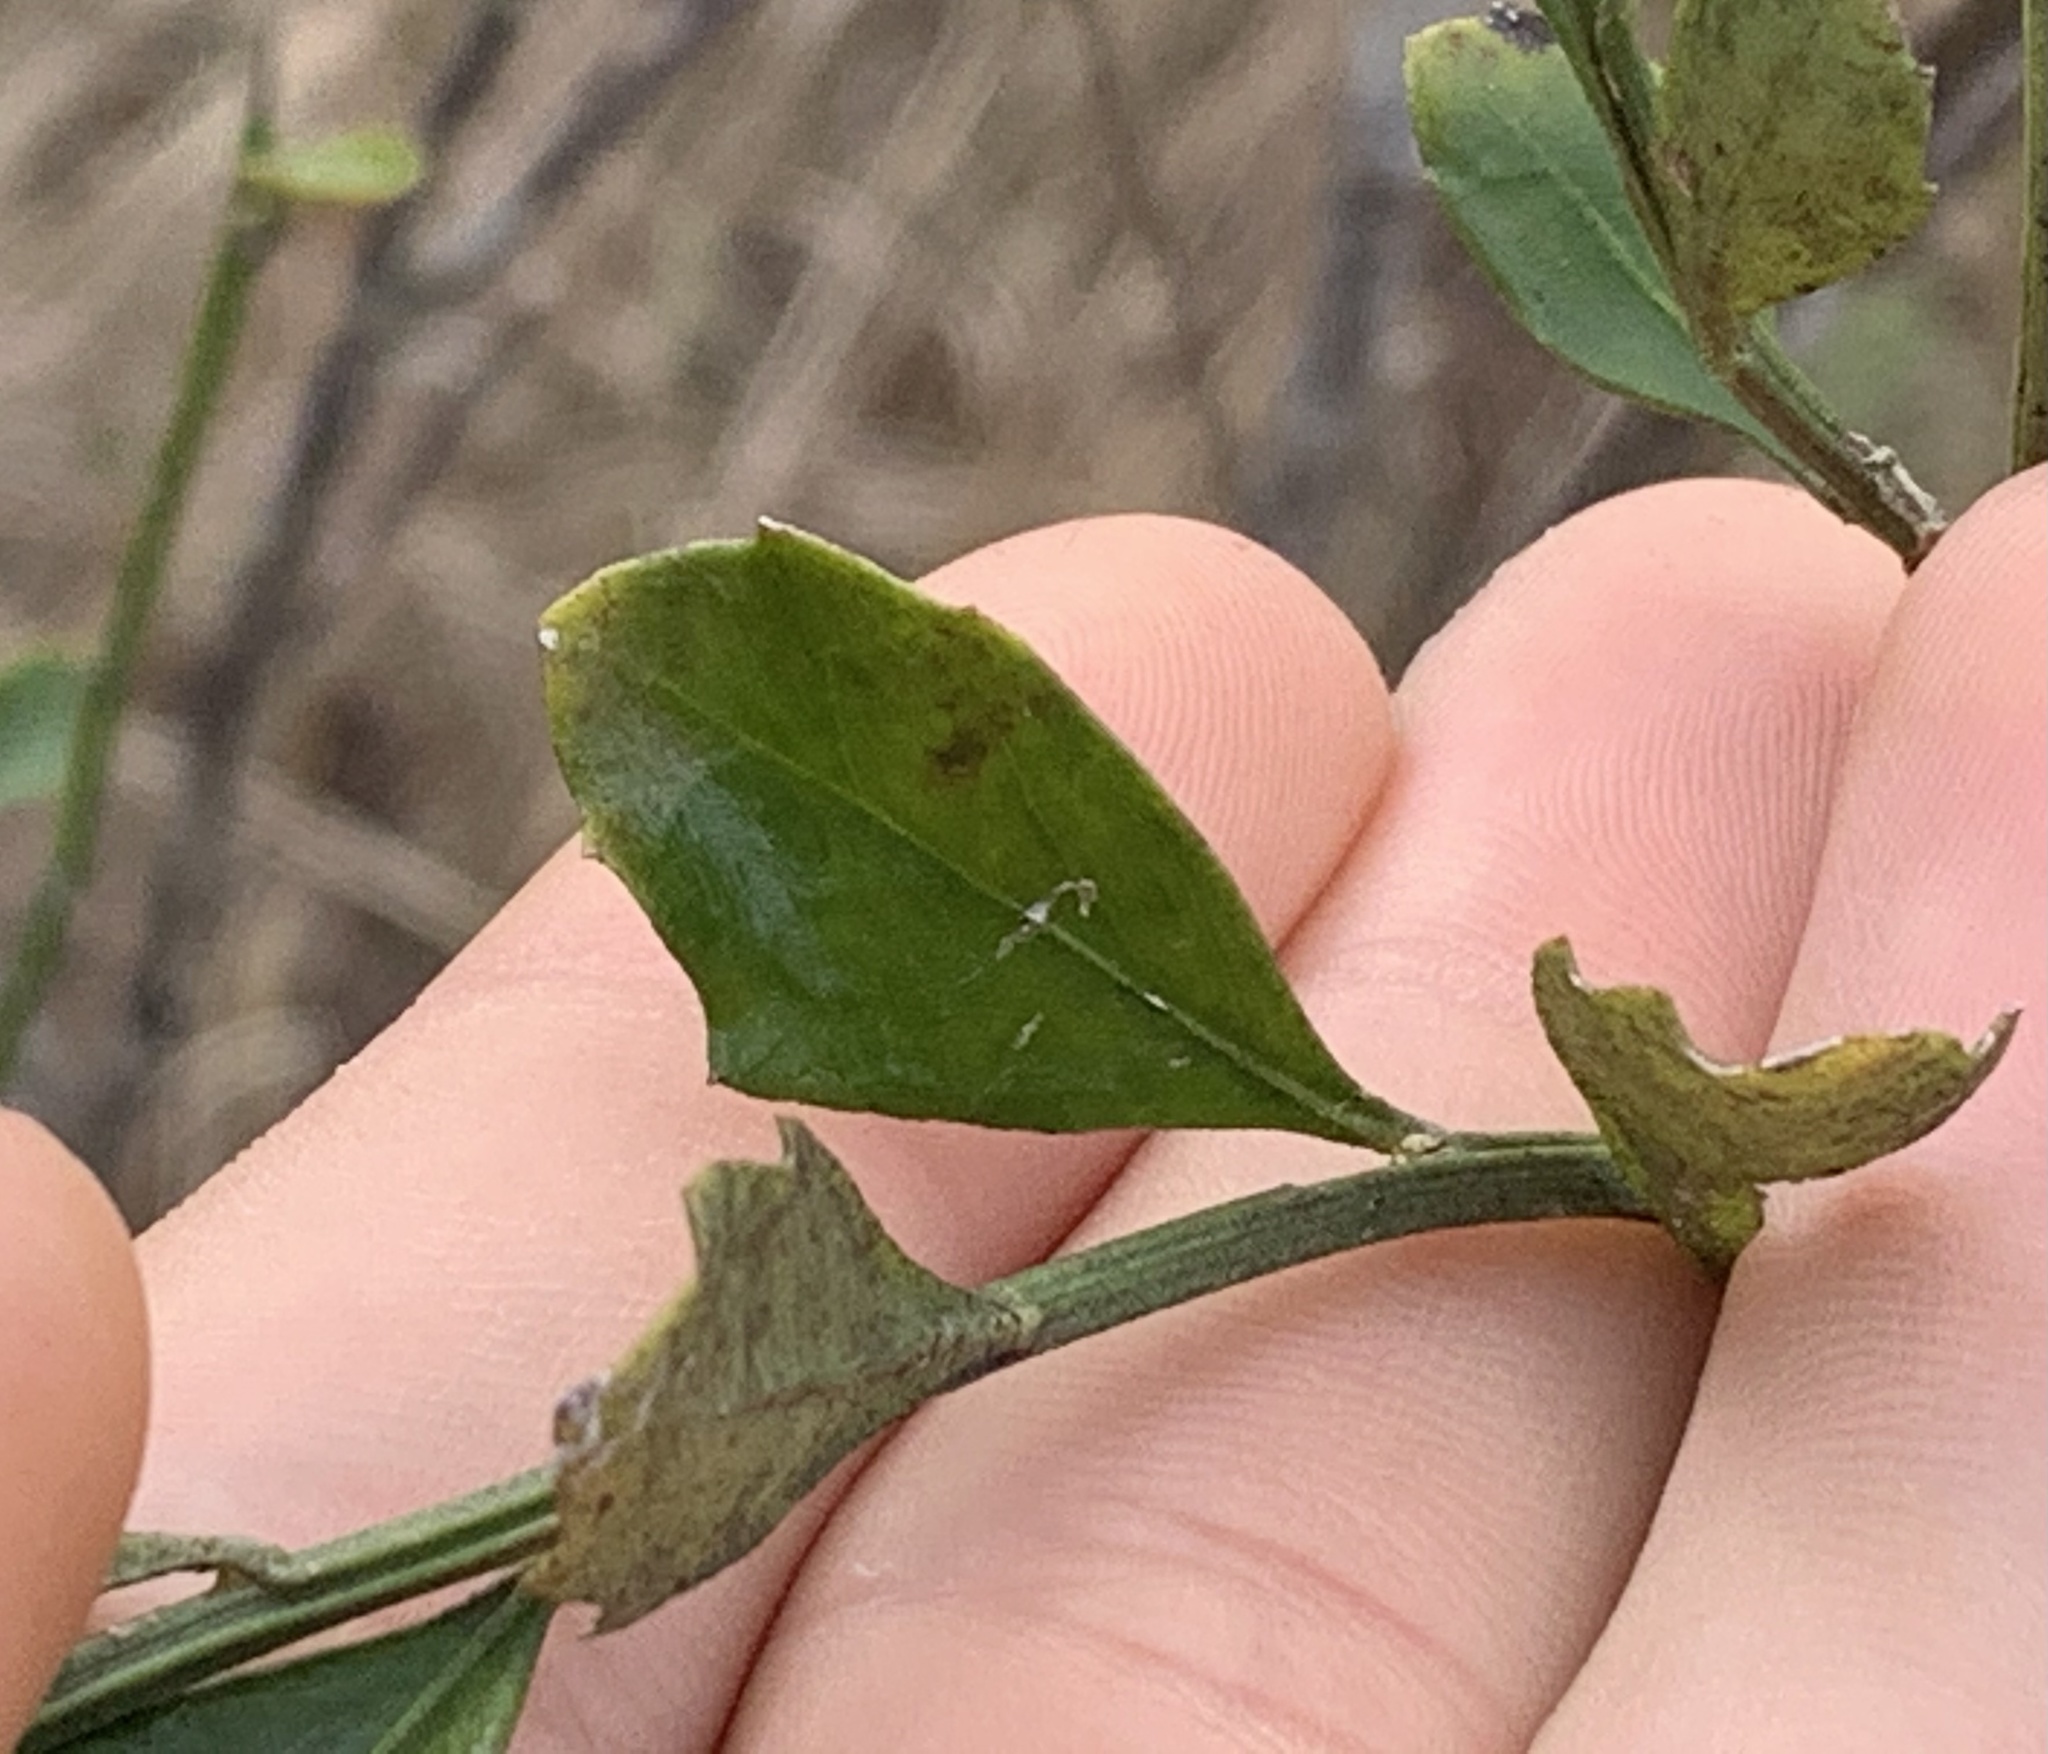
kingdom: Plantae
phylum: Tracheophyta
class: Magnoliopsida
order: Asterales
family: Asteraceae
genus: Baccharis
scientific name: Baccharis glomeruliflora
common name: Silverling groundsel bush
